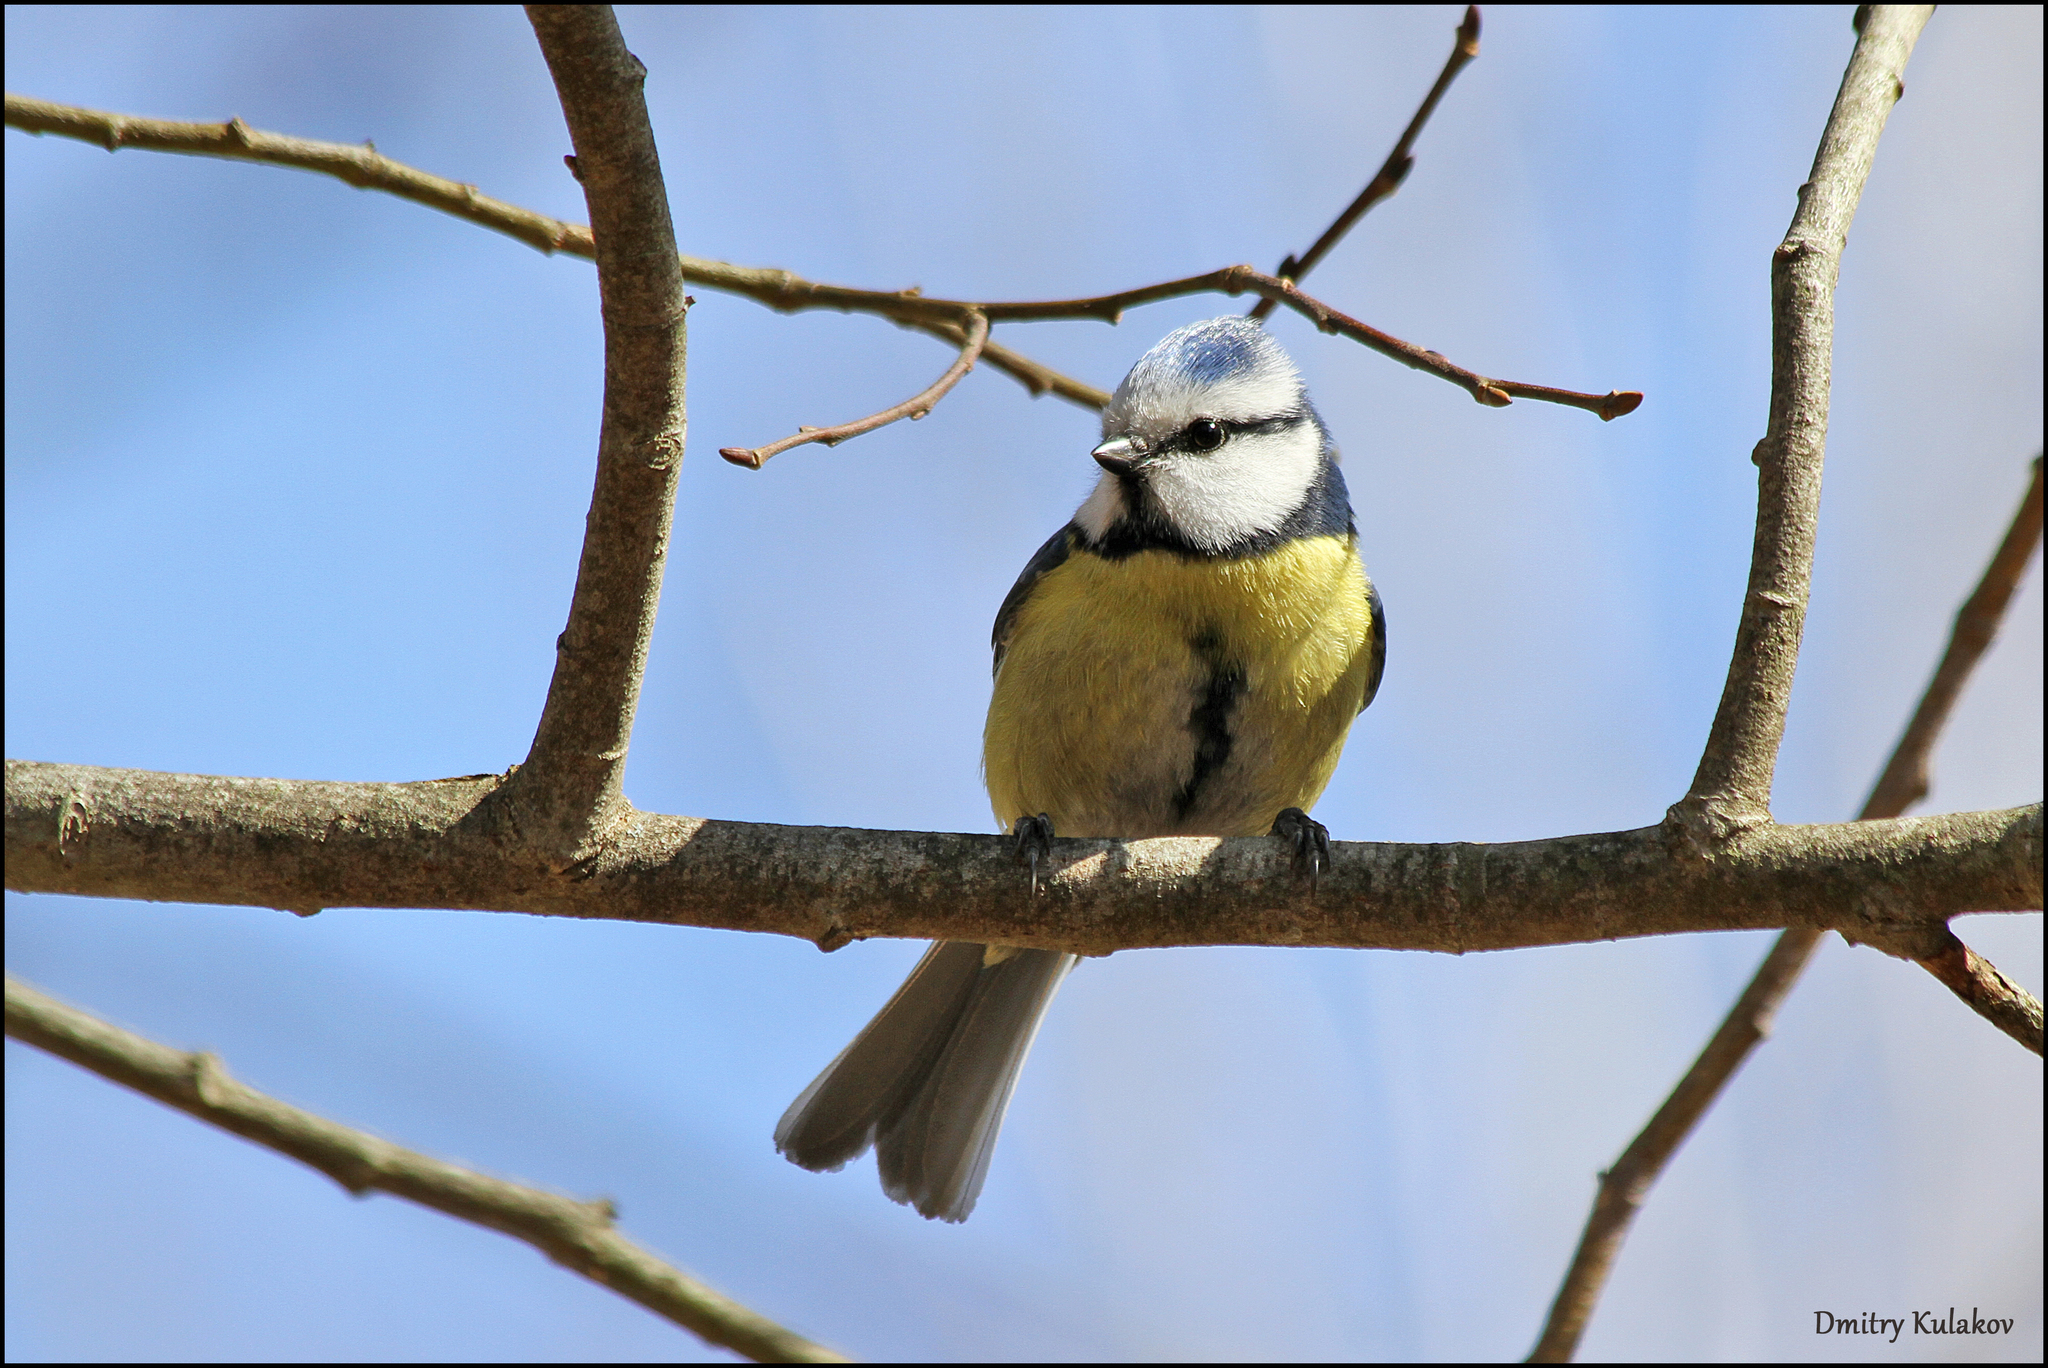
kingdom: Animalia
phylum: Chordata
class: Aves
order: Passeriformes
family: Paridae
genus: Cyanistes
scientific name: Cyanistes caeruleus
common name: Eurasian blue tit
